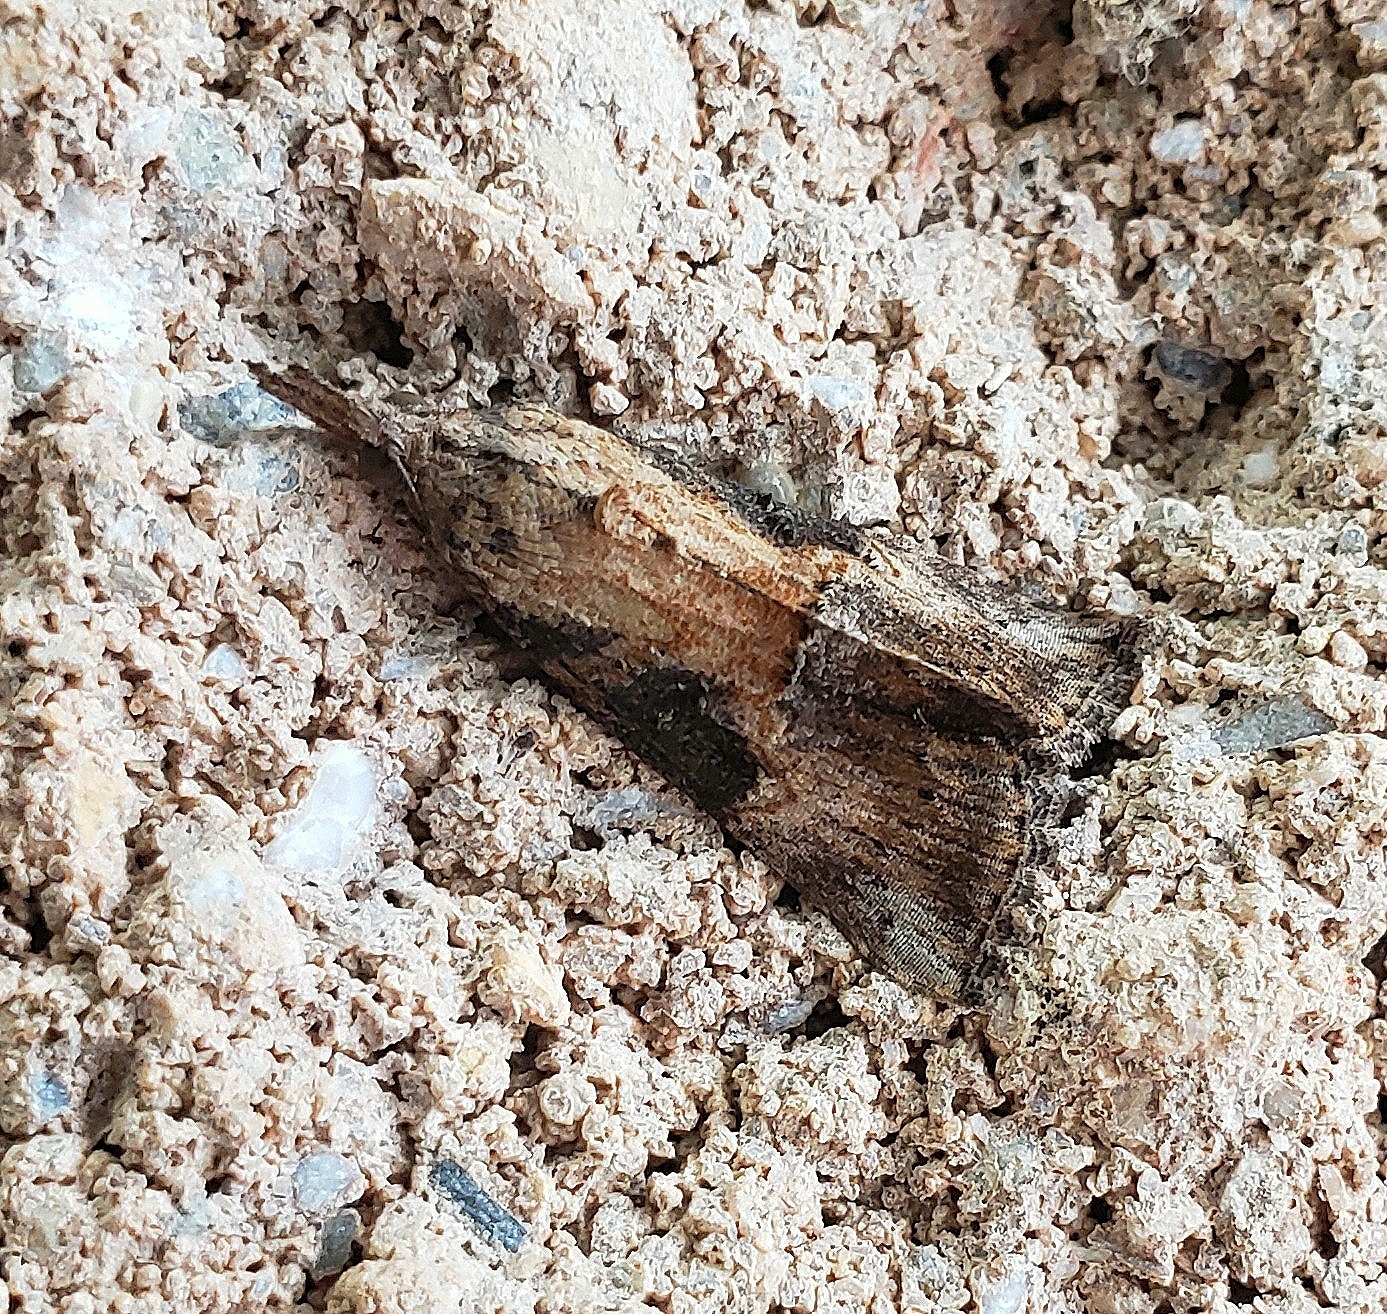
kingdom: Animalia
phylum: Arthropoda
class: Insecta
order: Lepidoptera
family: Erebidae
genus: Hypena
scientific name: Hypena scabra
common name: Green cloverworm
